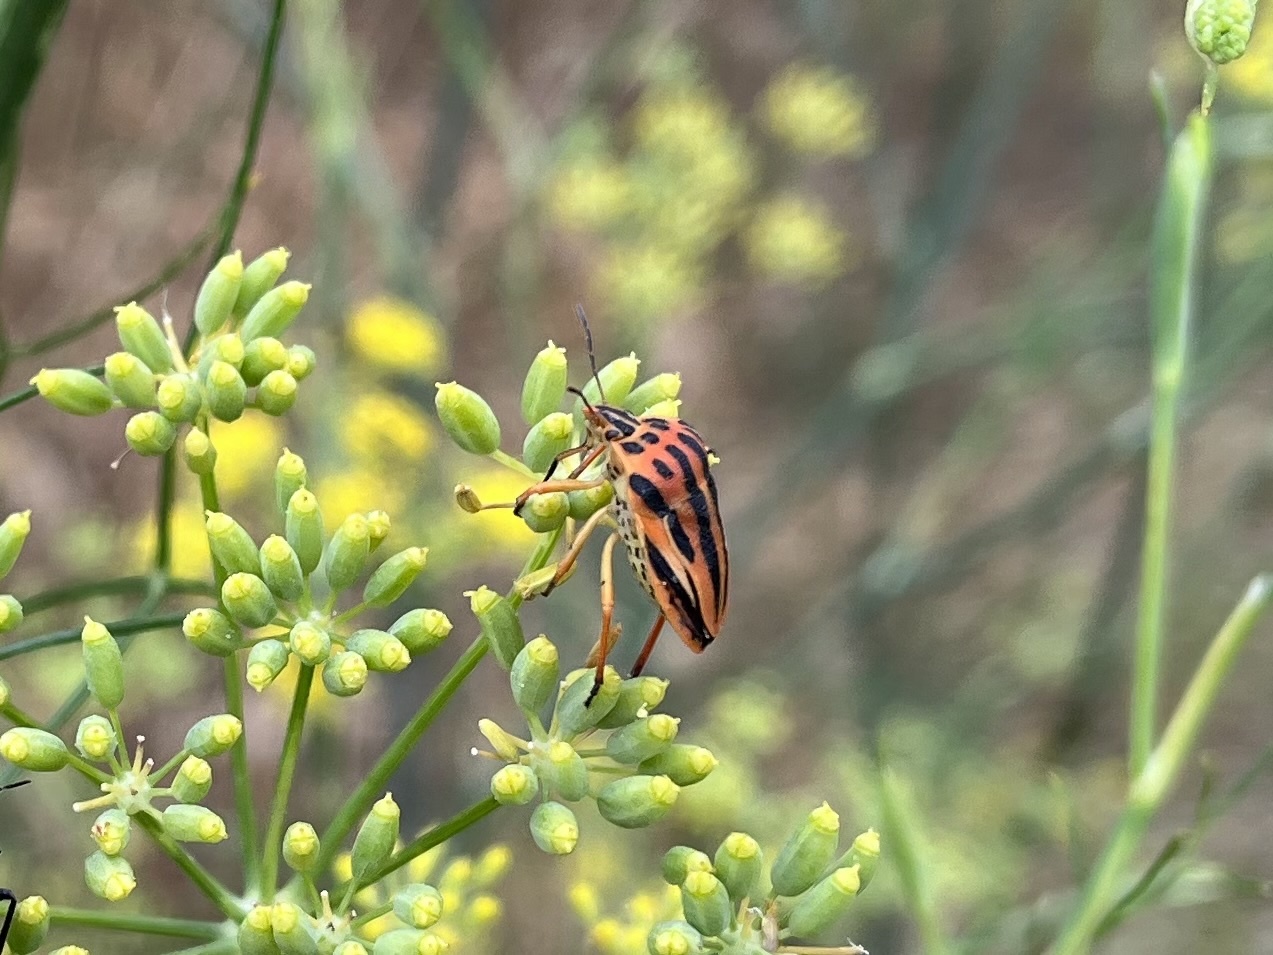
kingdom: Animalia
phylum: Arthropoda
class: Insecta
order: Hemiptera
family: Pentatomidae
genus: Graphosoma
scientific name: Graphosoma semipunctatum
